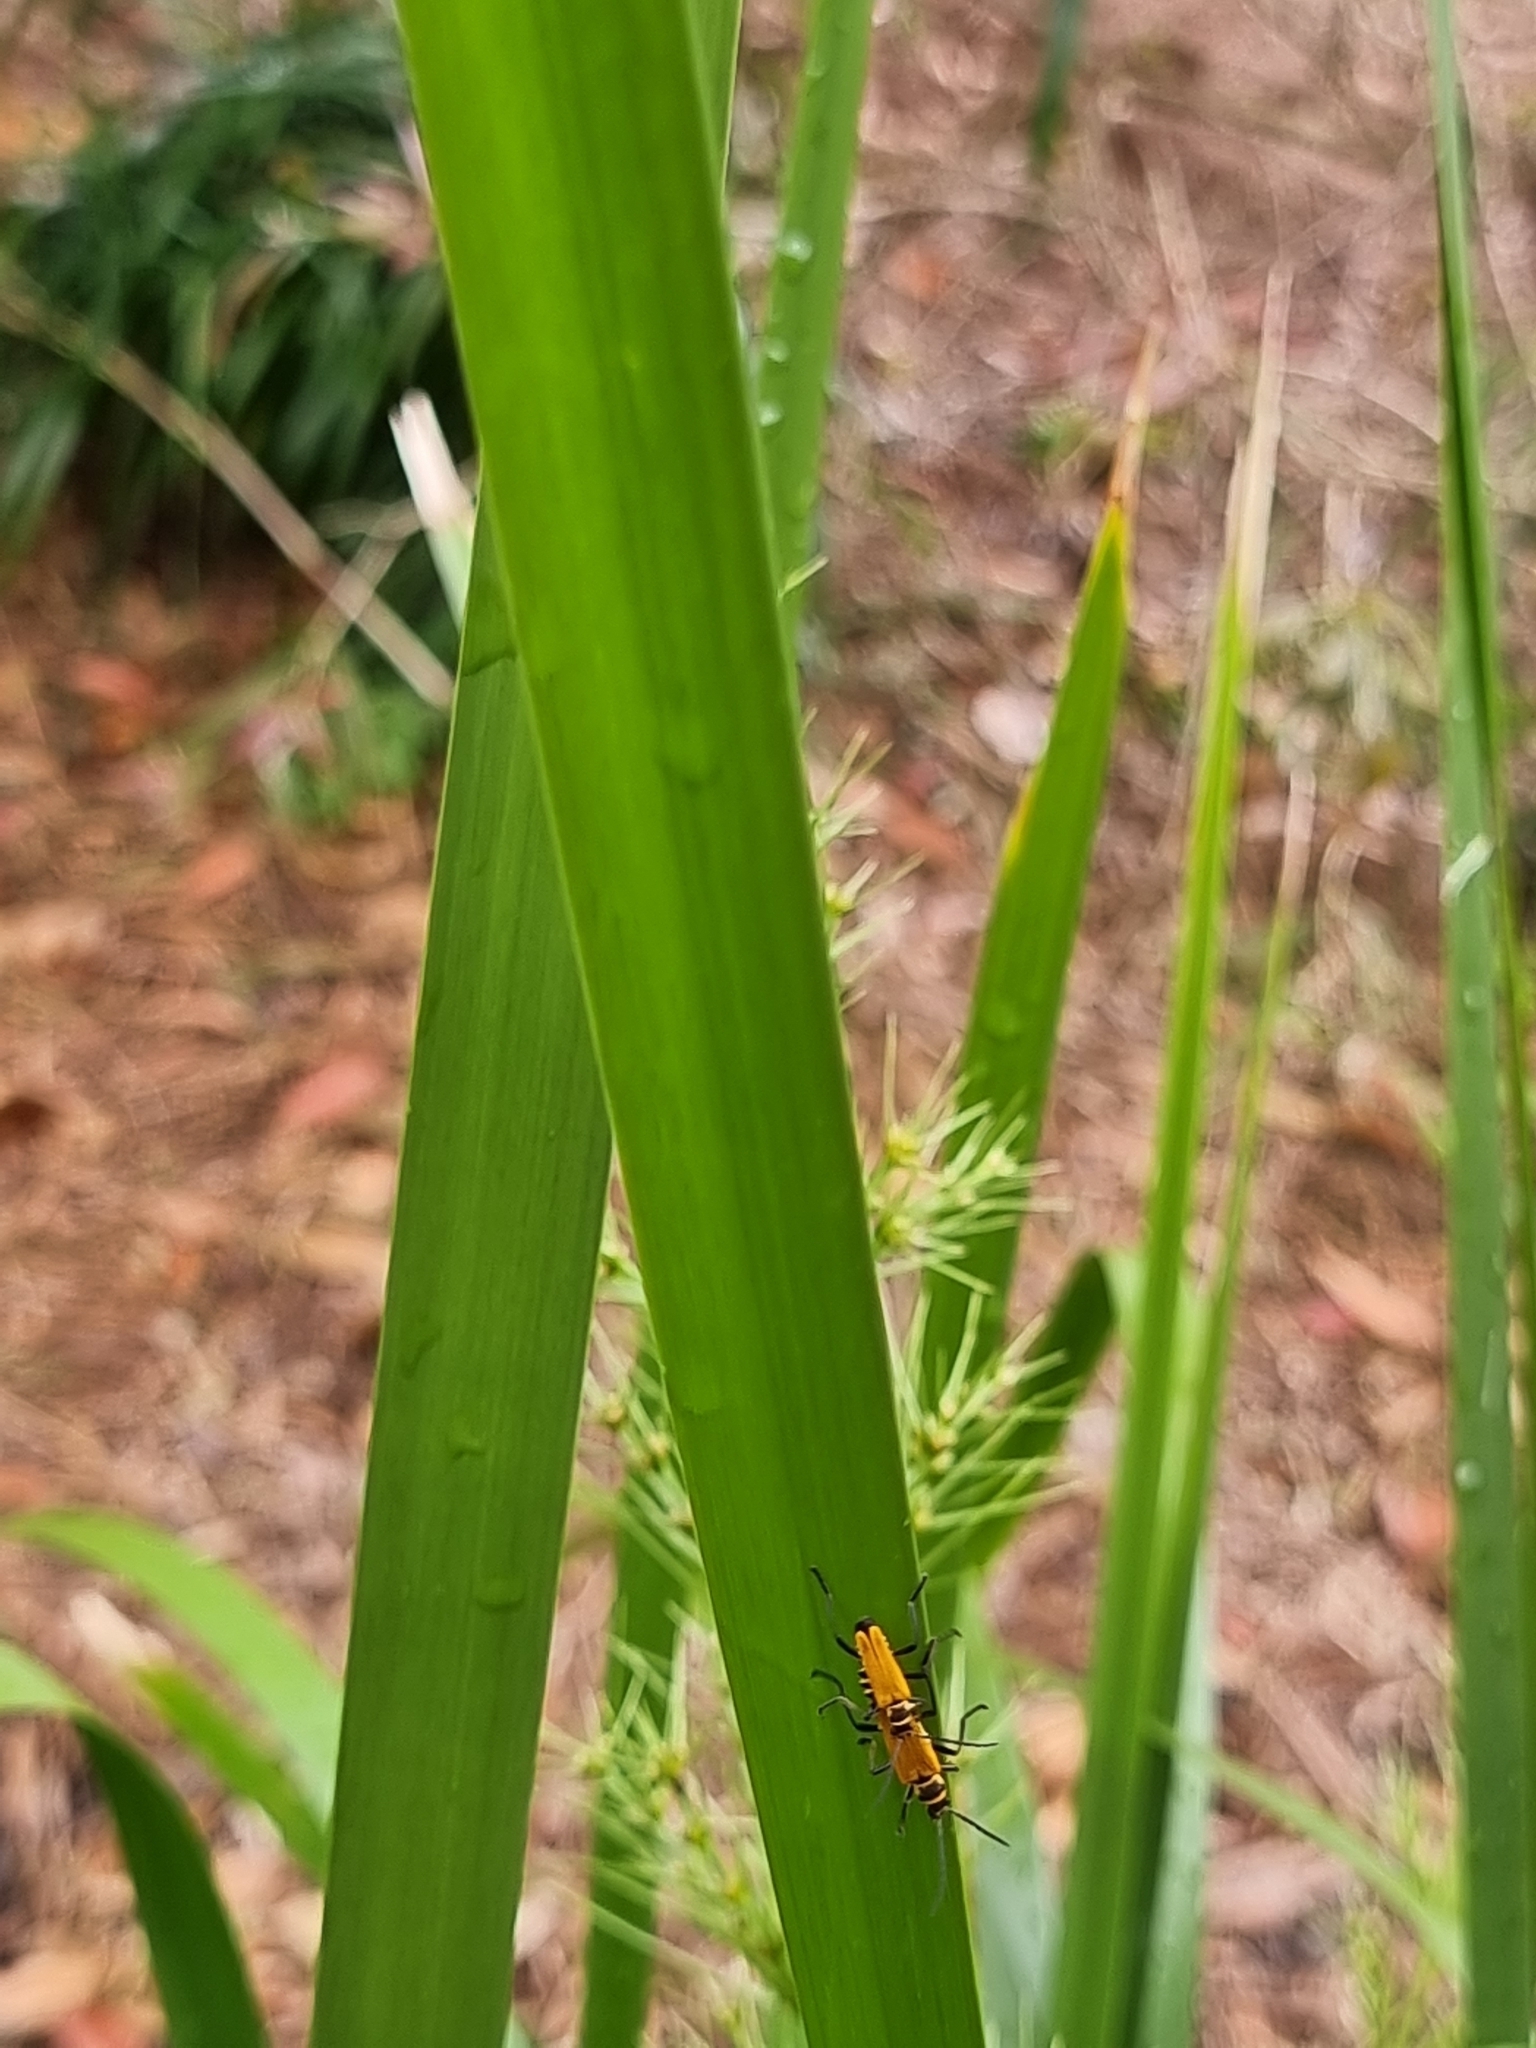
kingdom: Animalia
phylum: Arthropoda
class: Insecta
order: Coleoptera
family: Cantharidae
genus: Chauliognathus
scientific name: Chauliognathus
